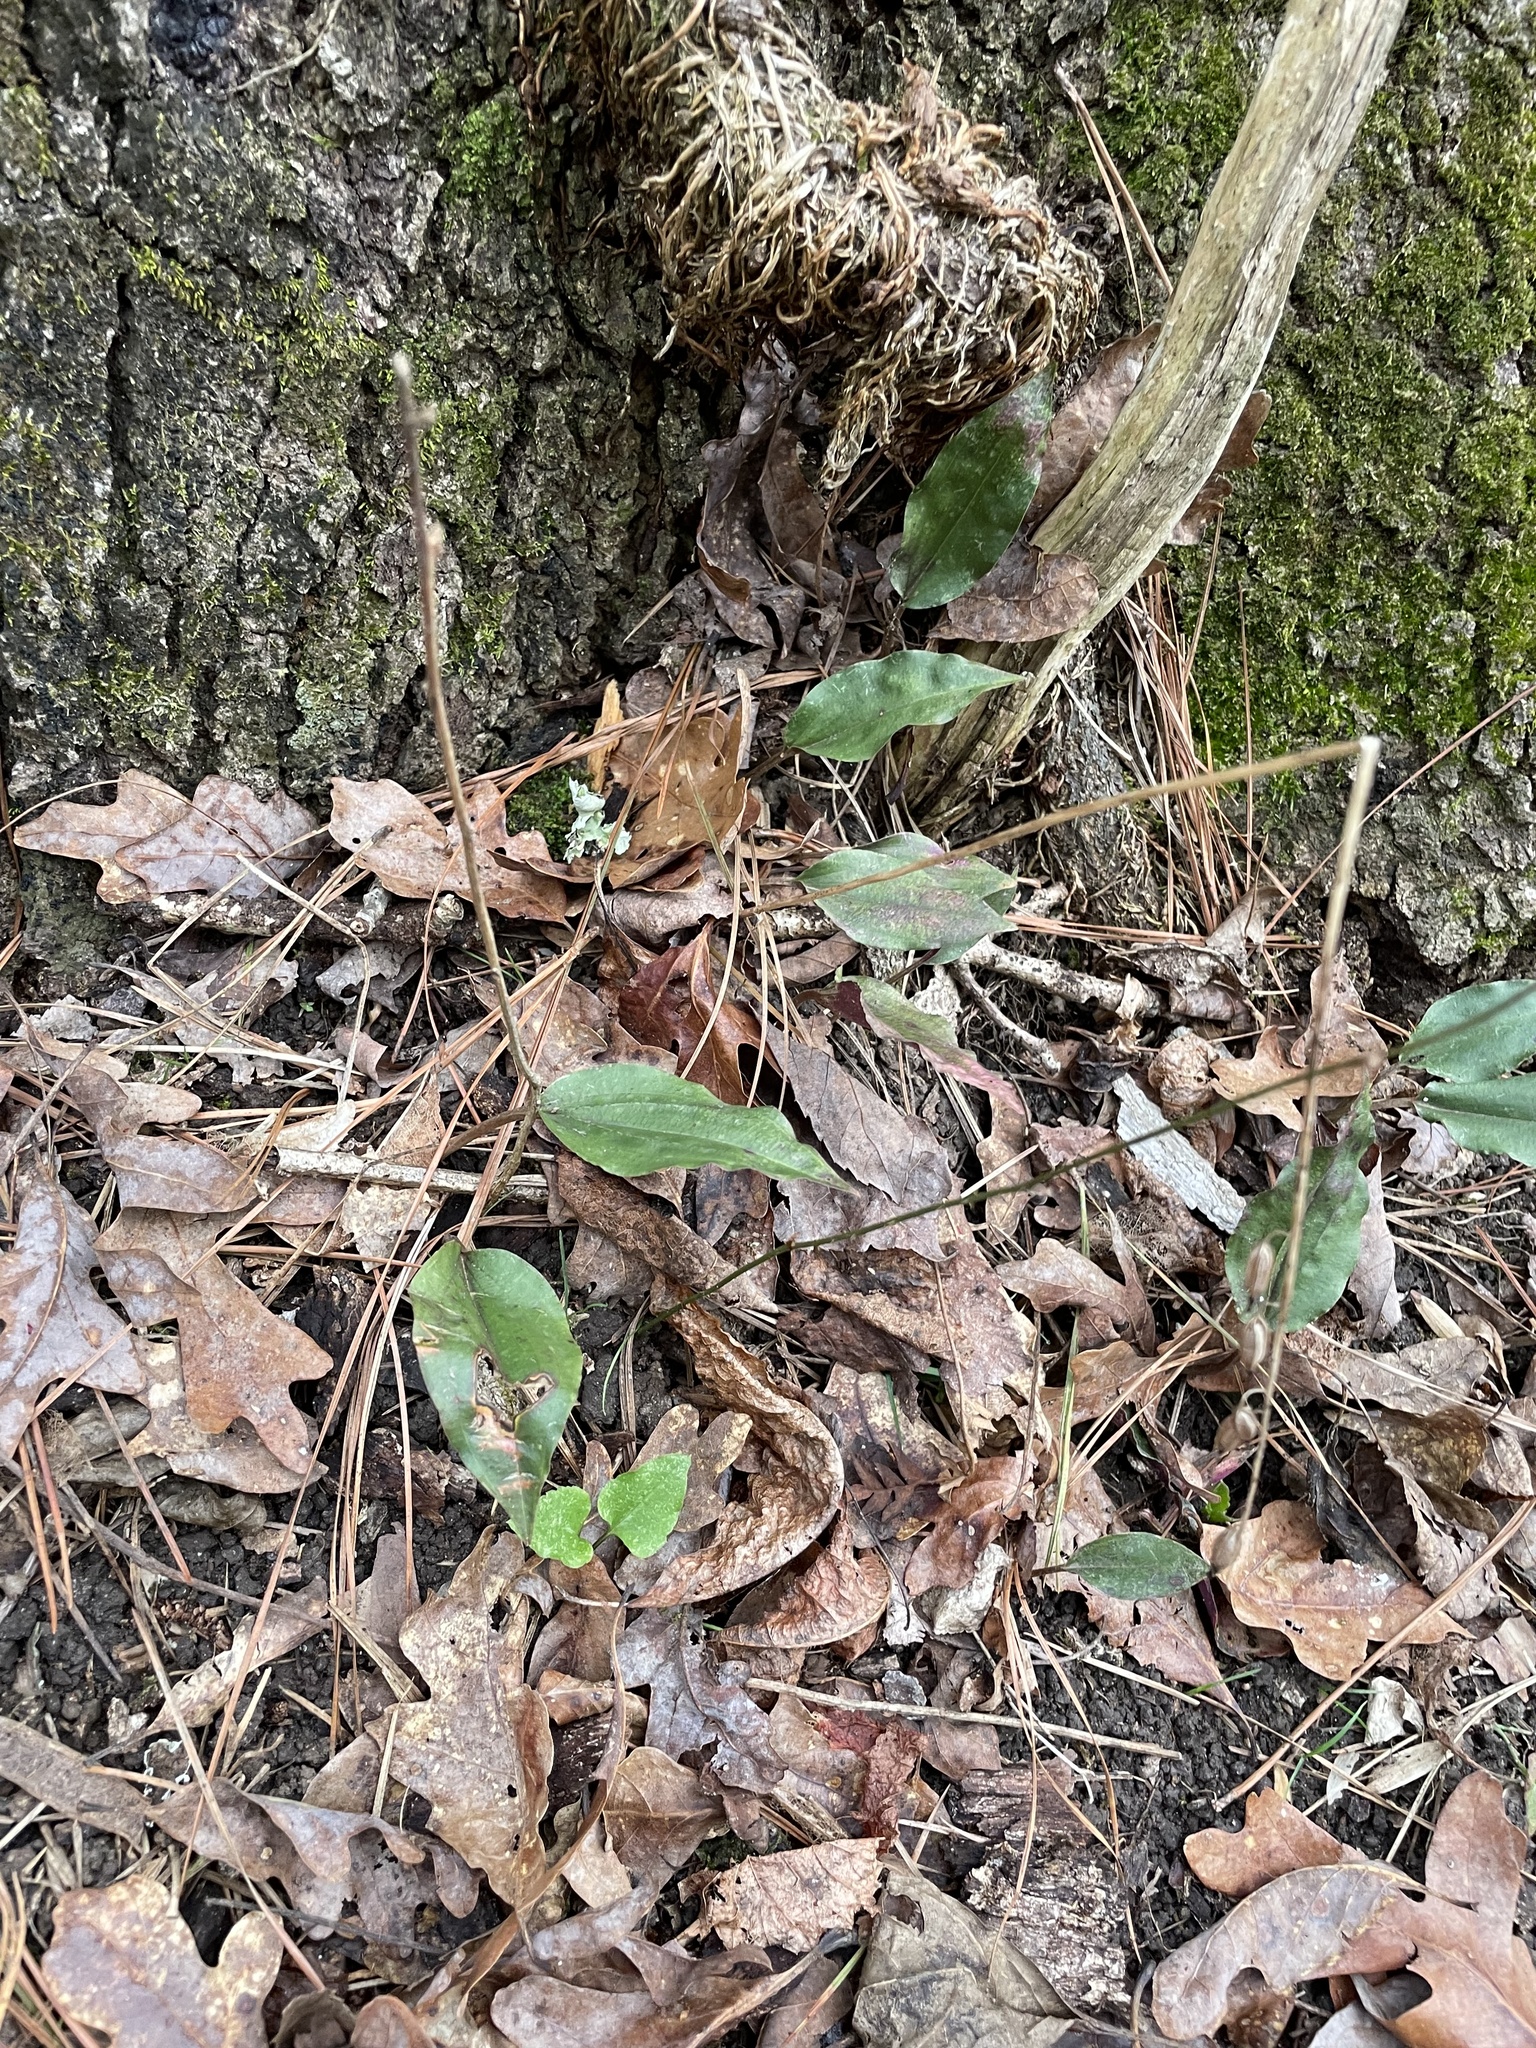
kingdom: Plantae
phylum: Tracheophyta
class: Liliopsida
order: Asparagales
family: Orchidaceae
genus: Tipularia
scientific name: Tipularia discolor
